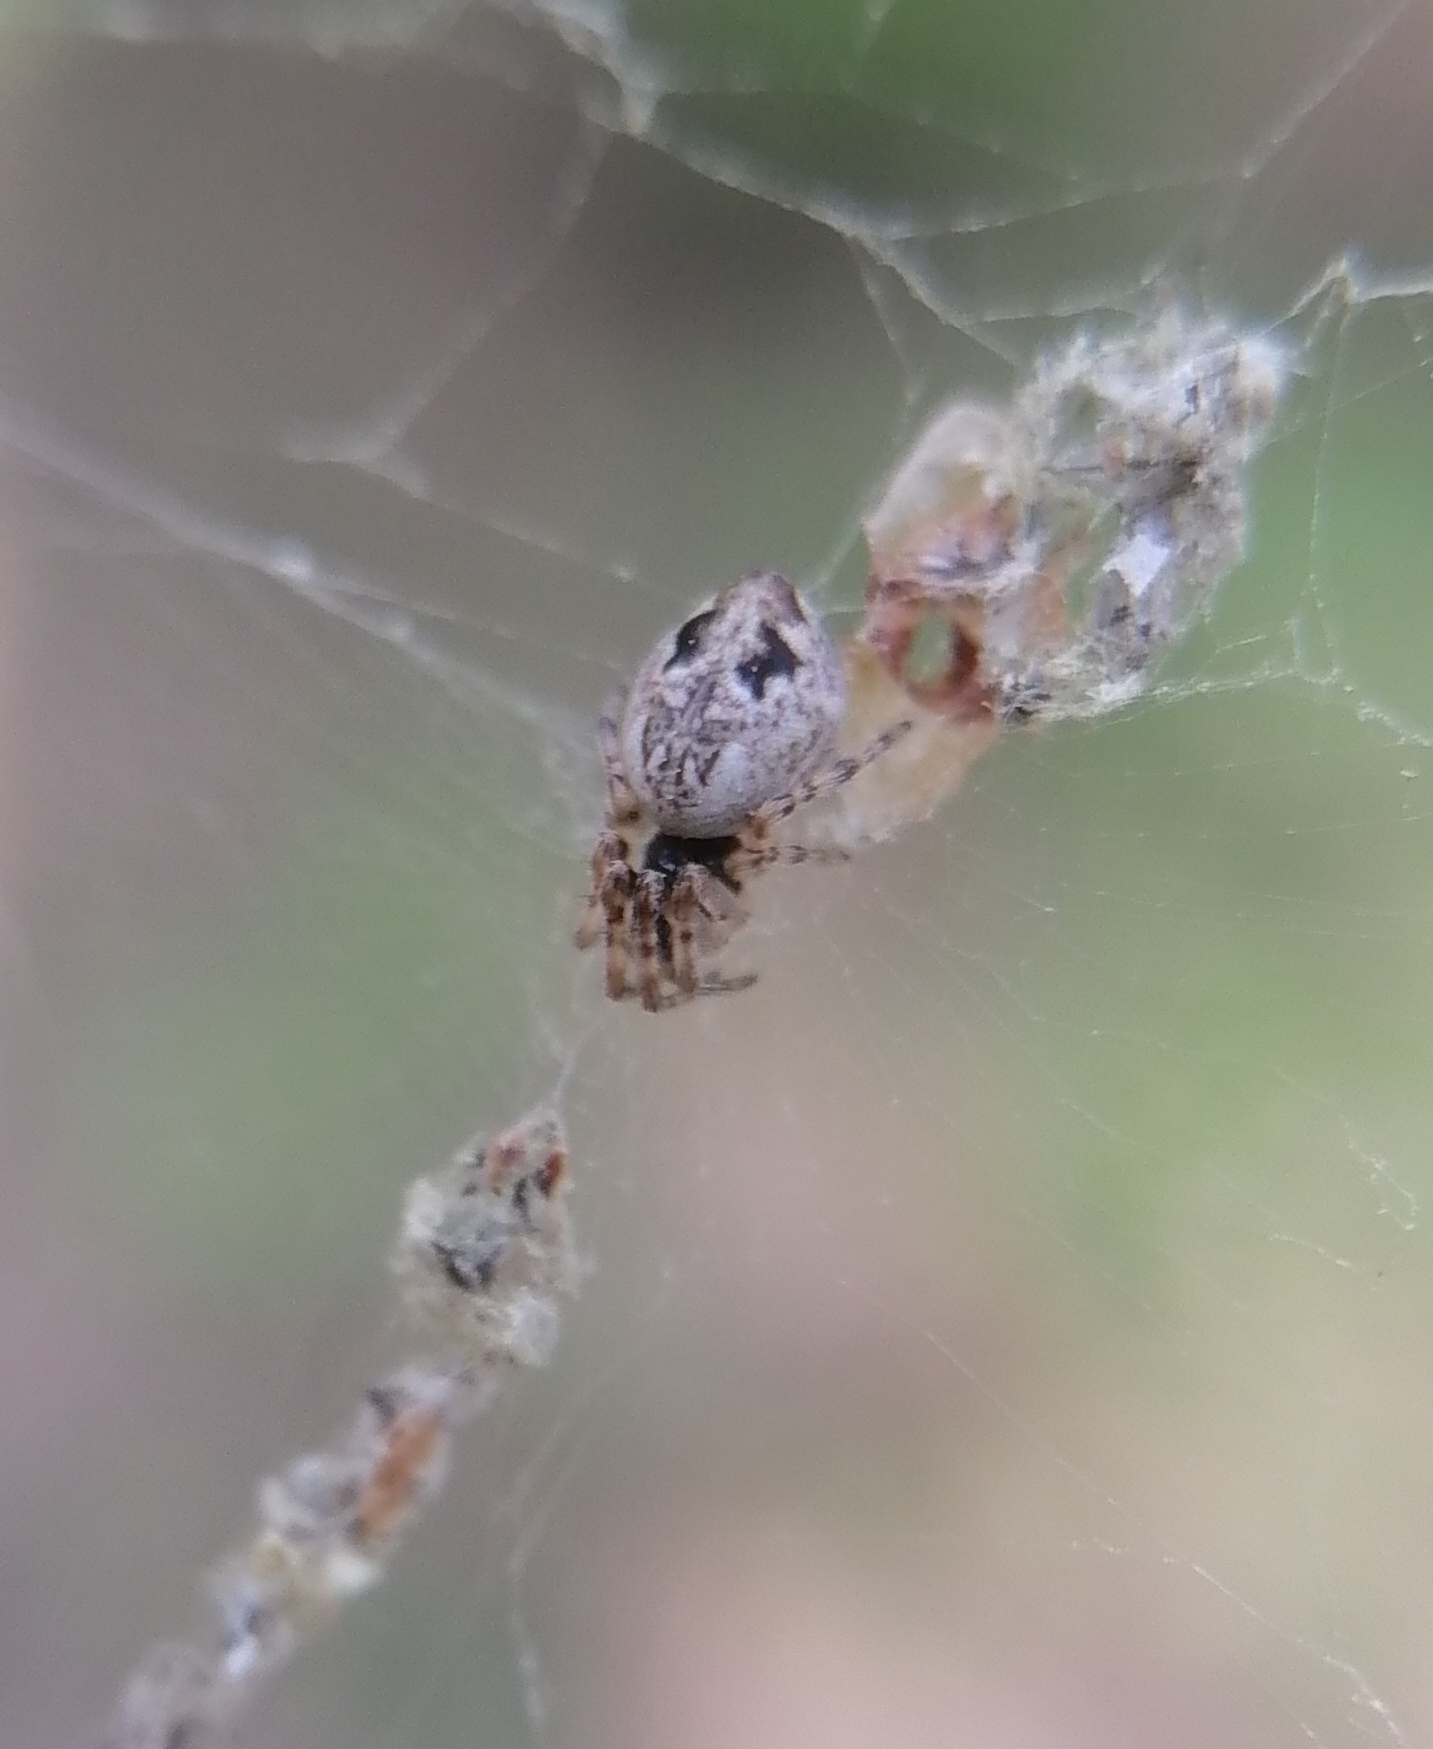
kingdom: Animalia
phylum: Arthropoda
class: Arachnida
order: Araneae
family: Araneidae
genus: Cyclosa
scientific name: Cyclosa conica
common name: Conical trashline orbweaver
